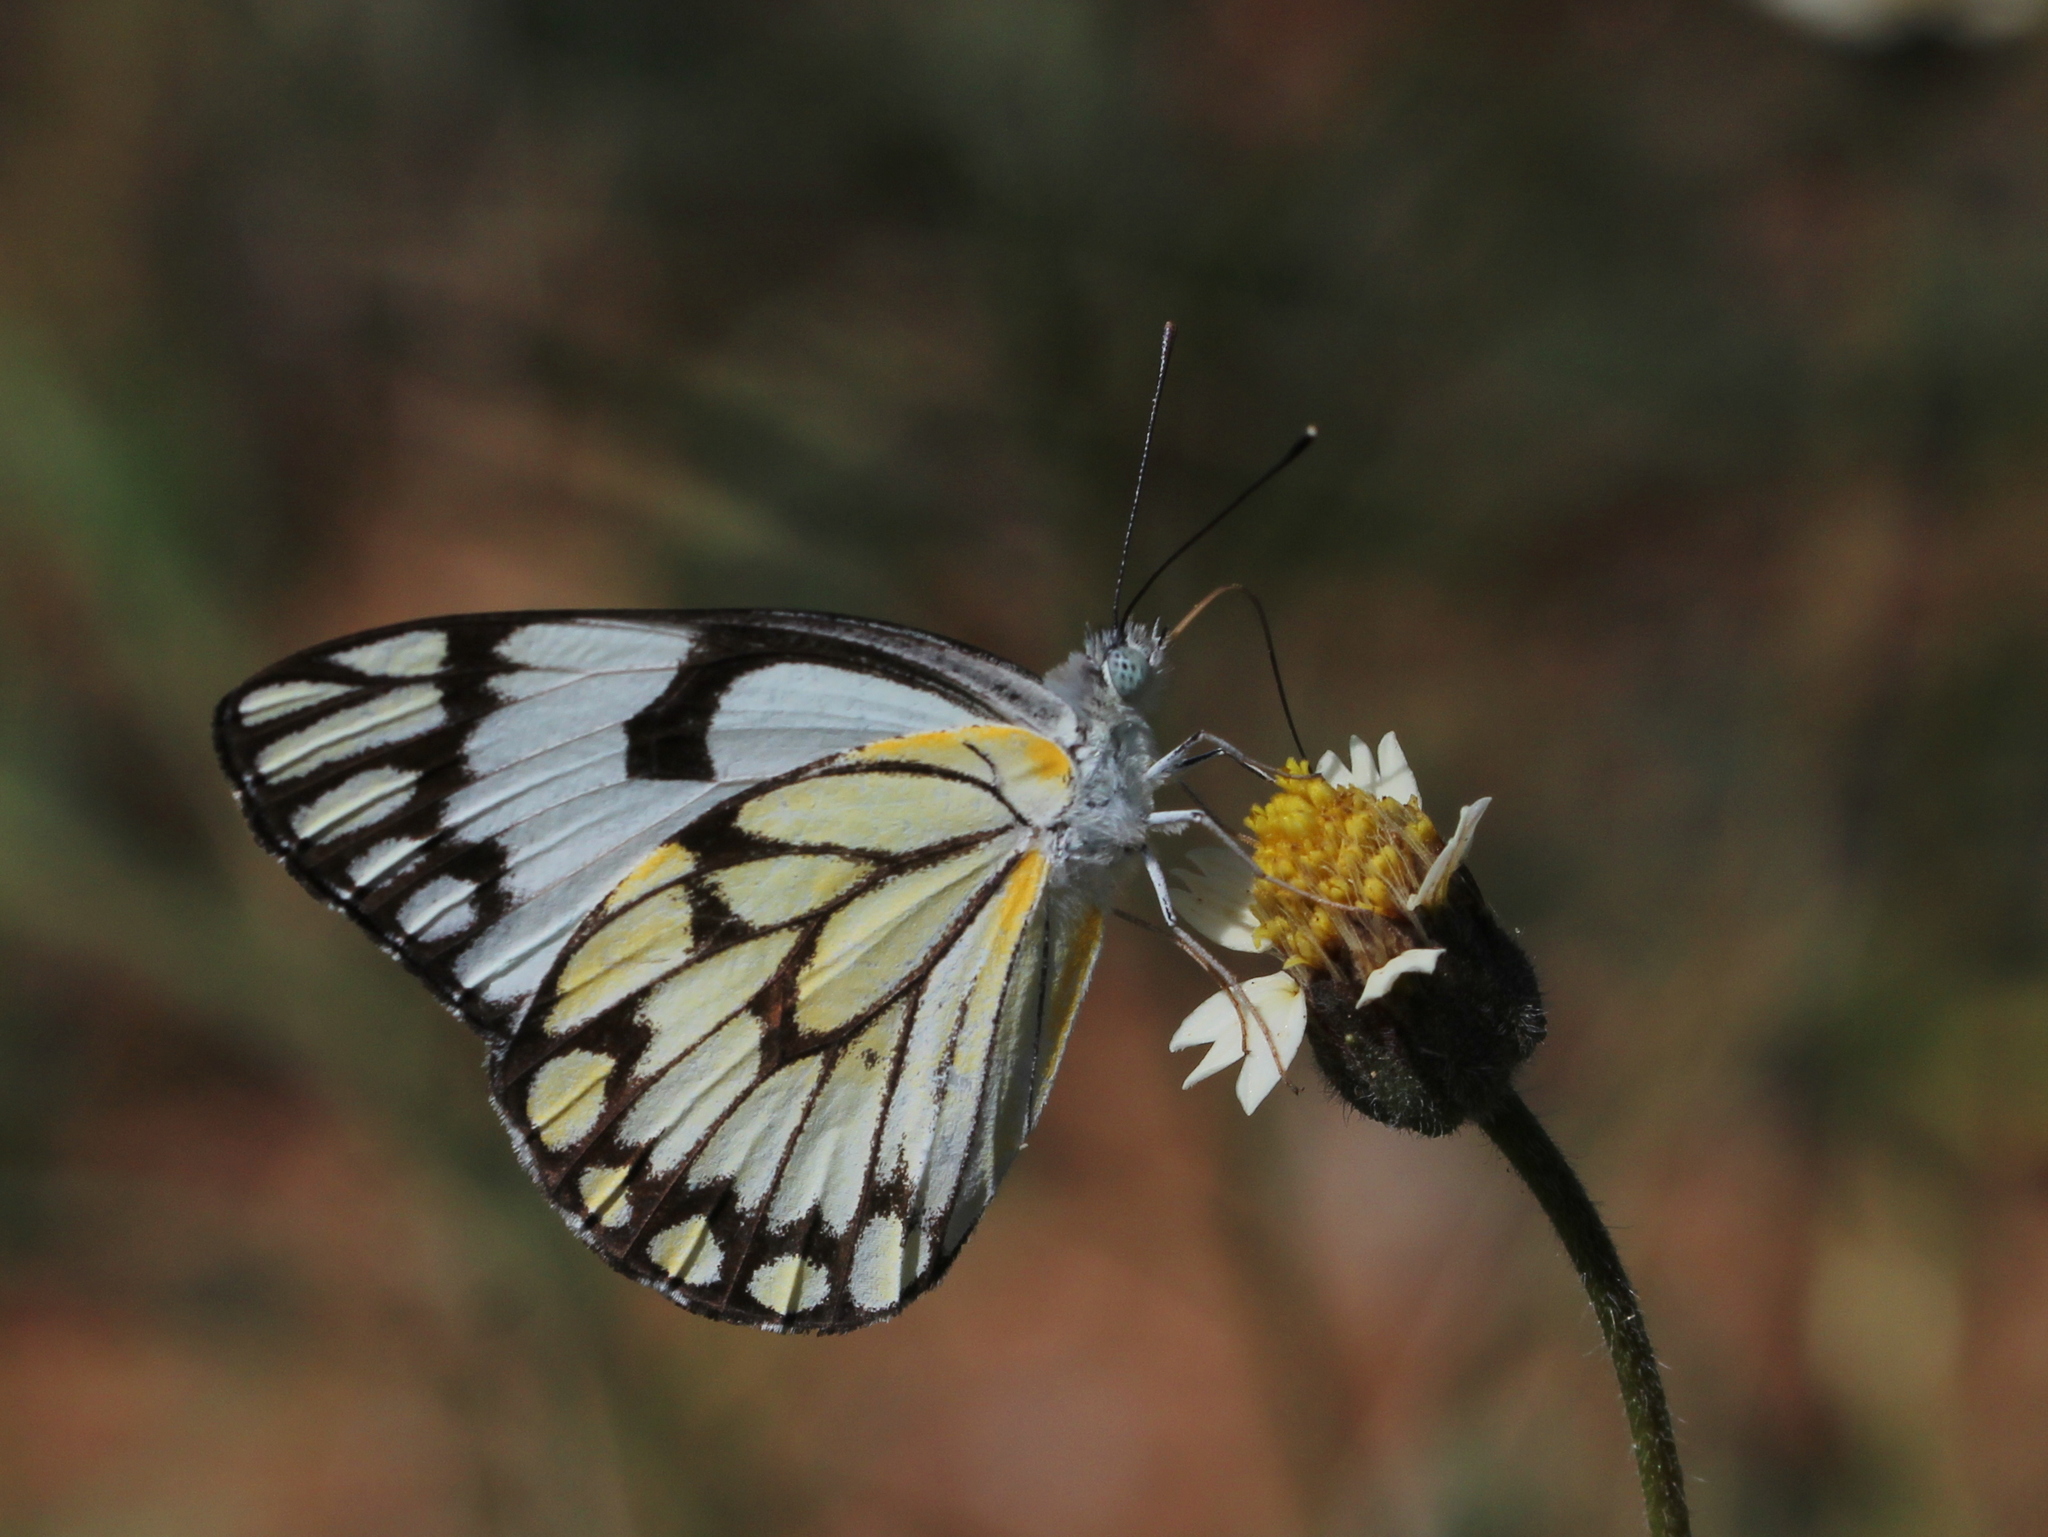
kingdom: Animalia
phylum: Arthropoda
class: Insecta
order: Lepidoptera
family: Pieridae
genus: Belenois
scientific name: Belenois aurota
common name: Brown-veined white
